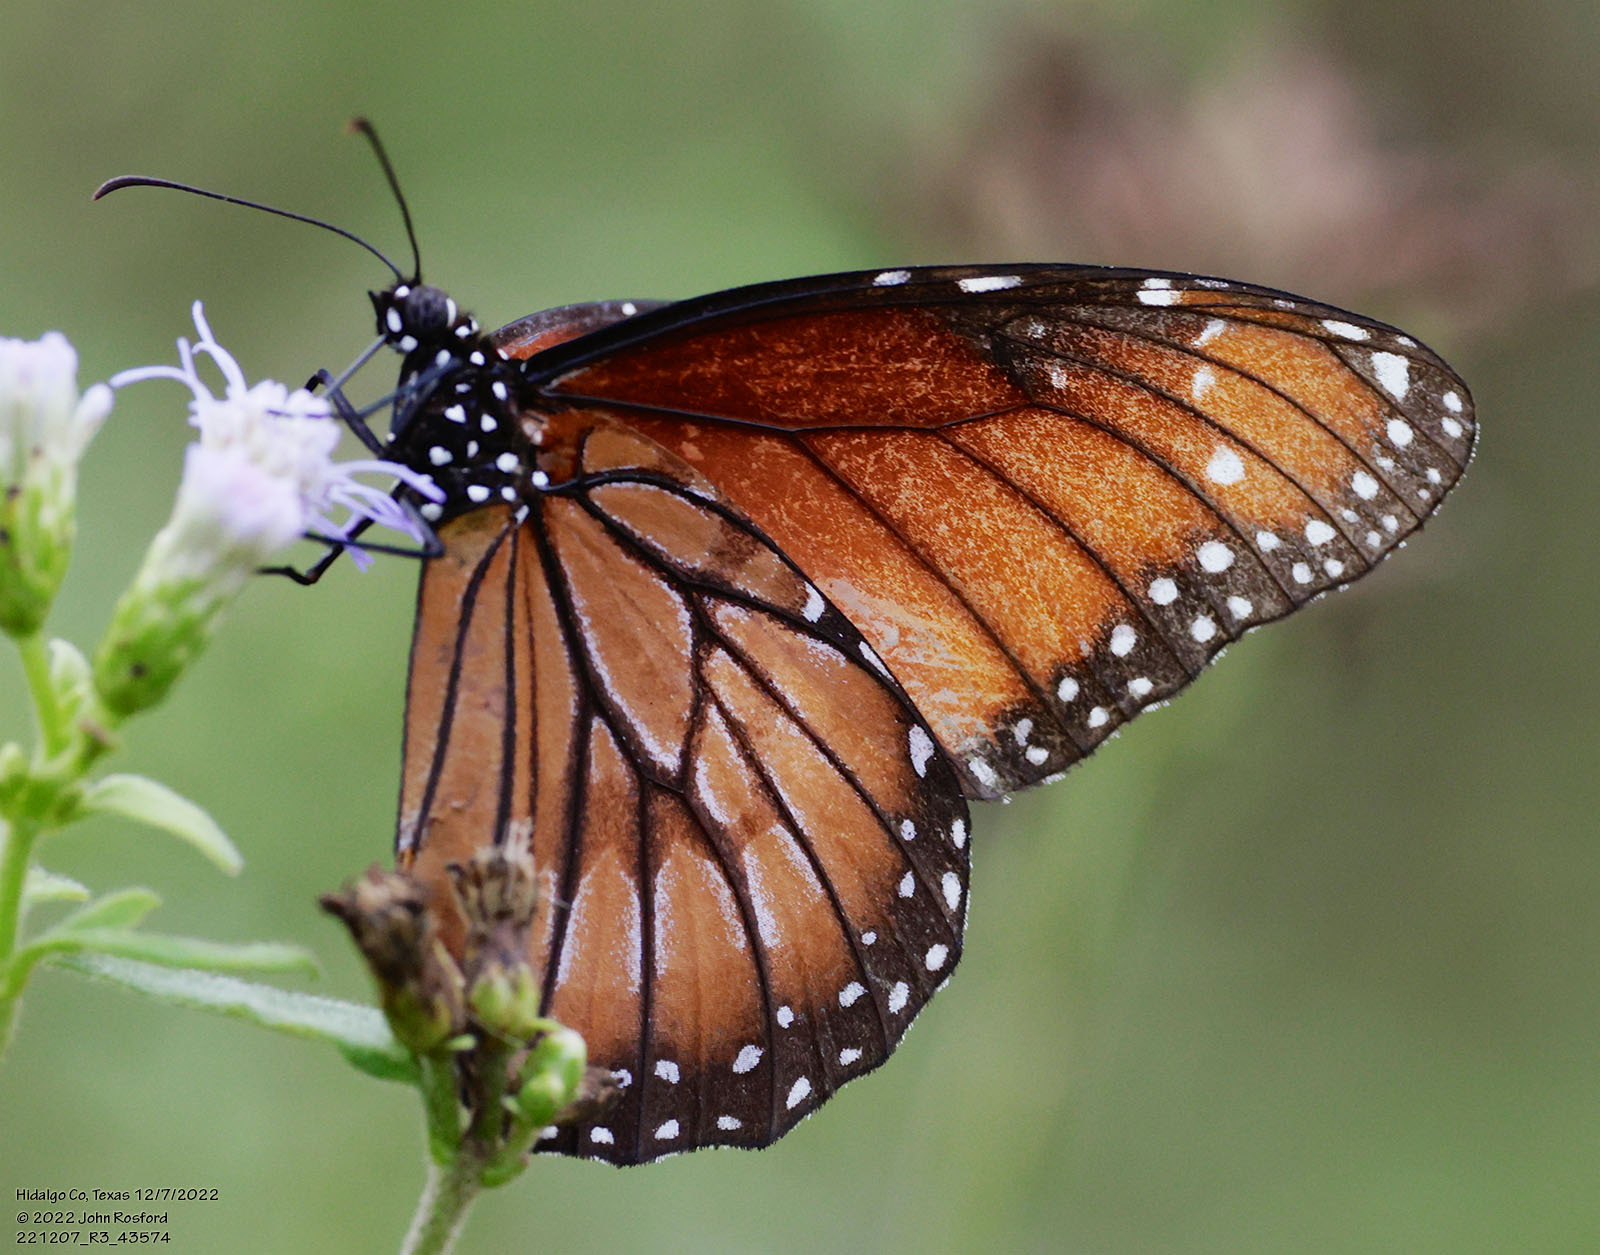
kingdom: Animalia
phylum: Arthropoda
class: Insecta
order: Lepidoptera
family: Nymphalidae
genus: Danaus
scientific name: Danaus eresimus
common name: Soldier
